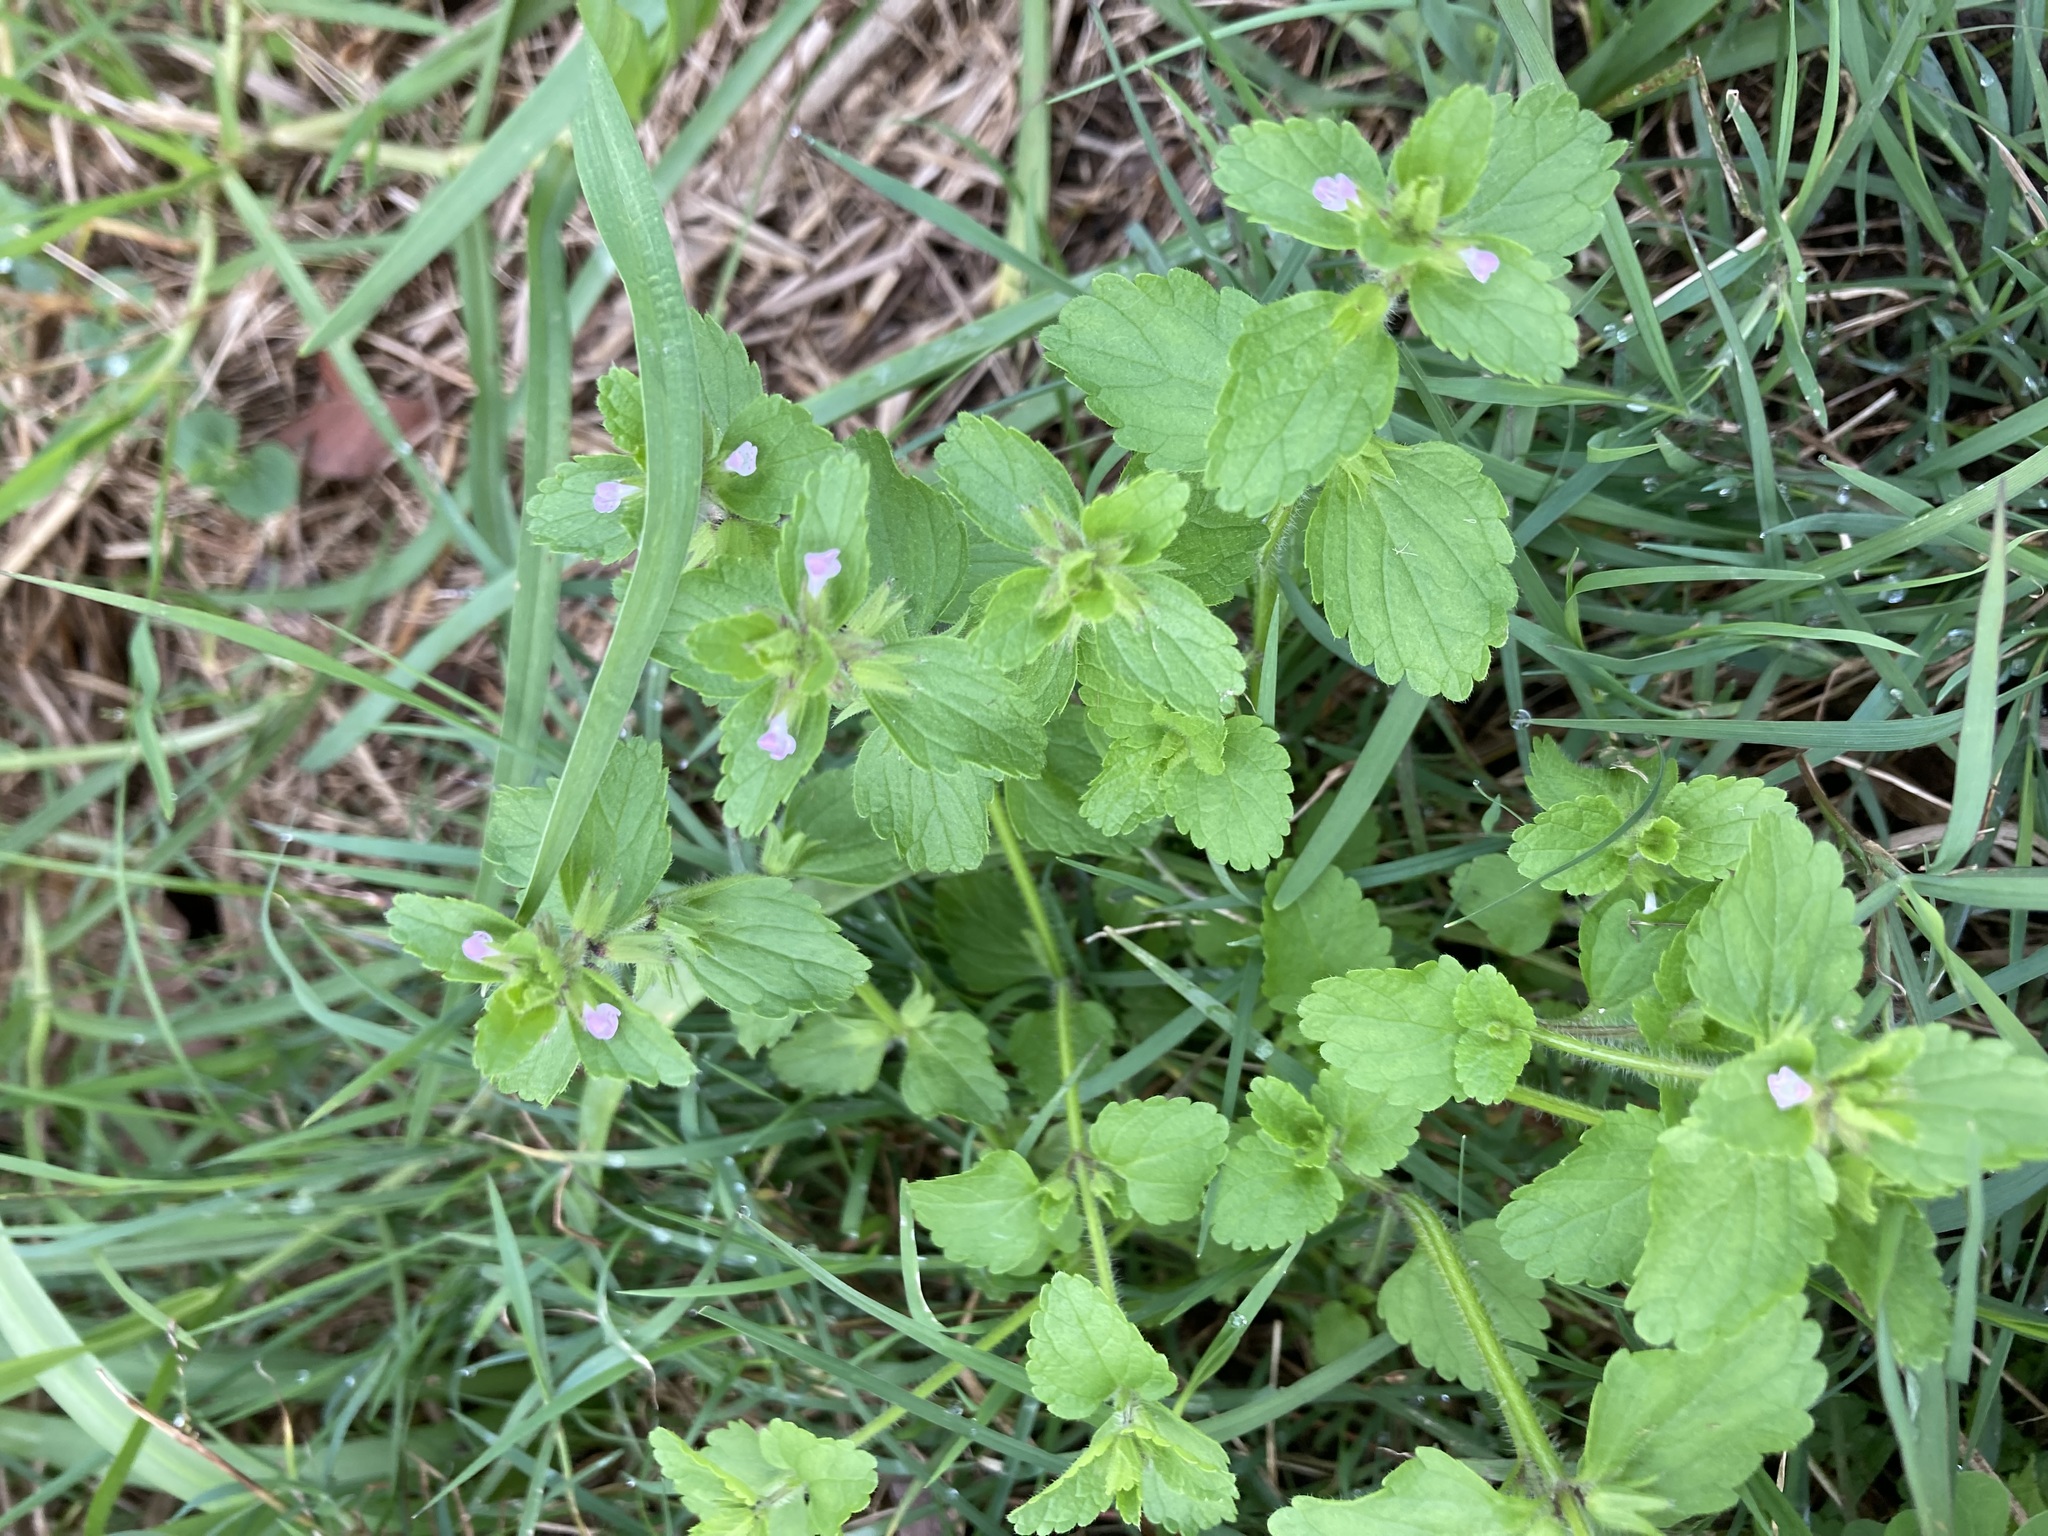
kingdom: Plantae
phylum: Tracheophyta
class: Magnoliopsida
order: Lamiales
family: Lamiaceae
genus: Stachys
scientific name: Stachys arvensis
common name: Field woundwort
